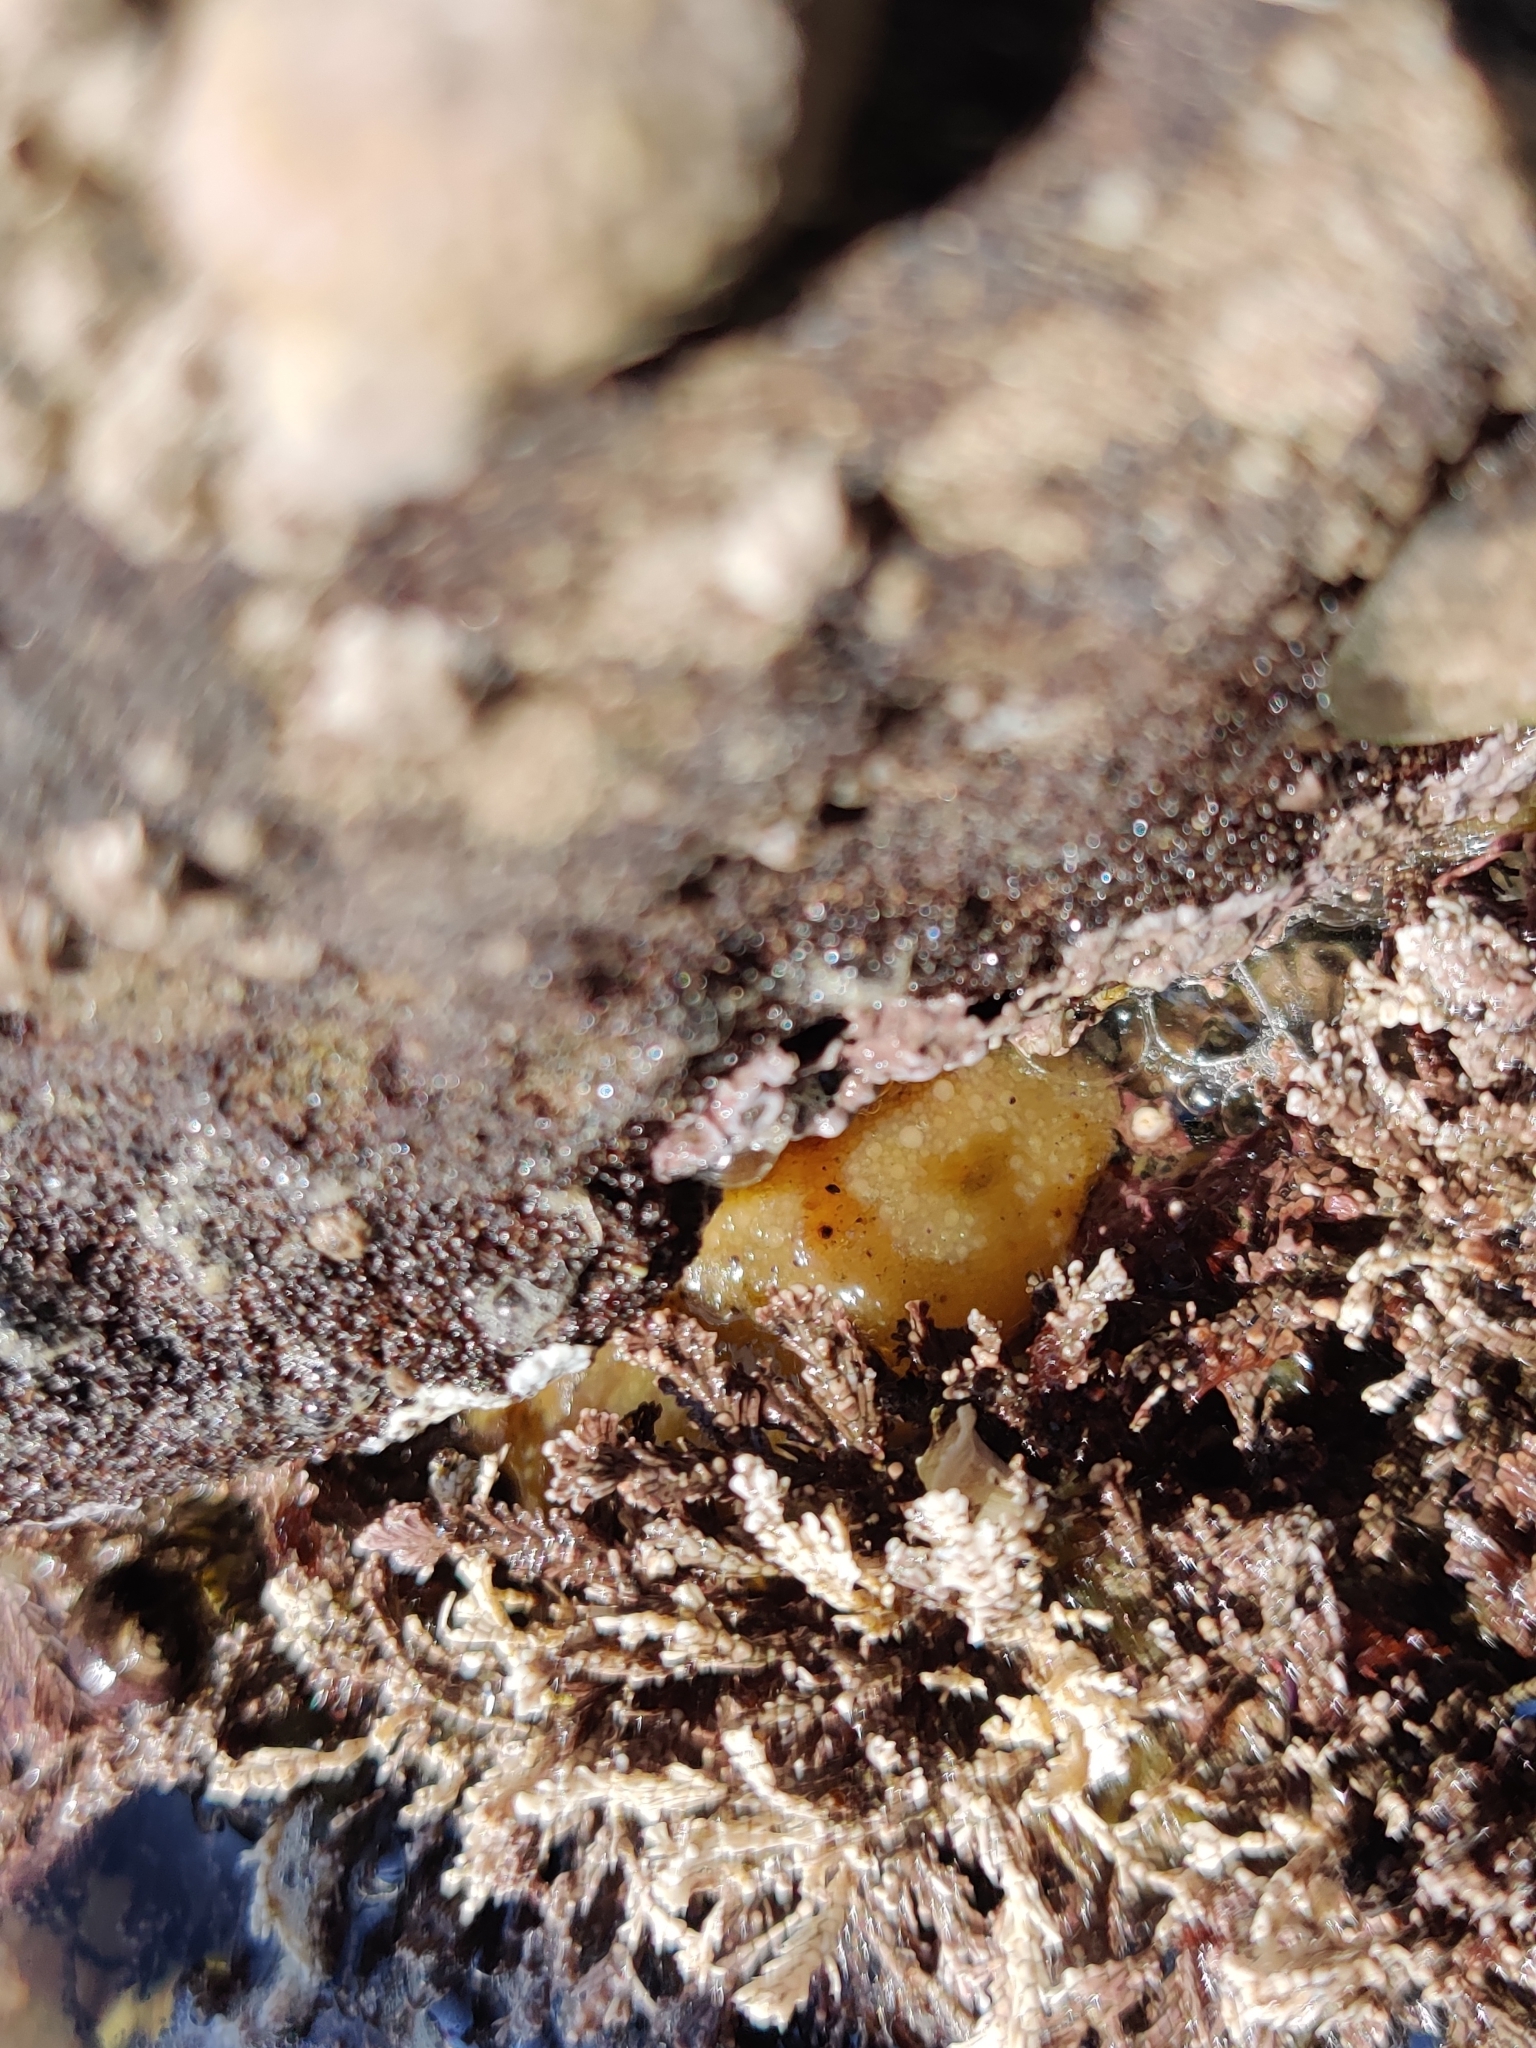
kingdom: Animalia
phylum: Mollusca
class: Gastropoda
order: Nudibranchia
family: Dorididae
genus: Doris
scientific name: Doris montereyensis
